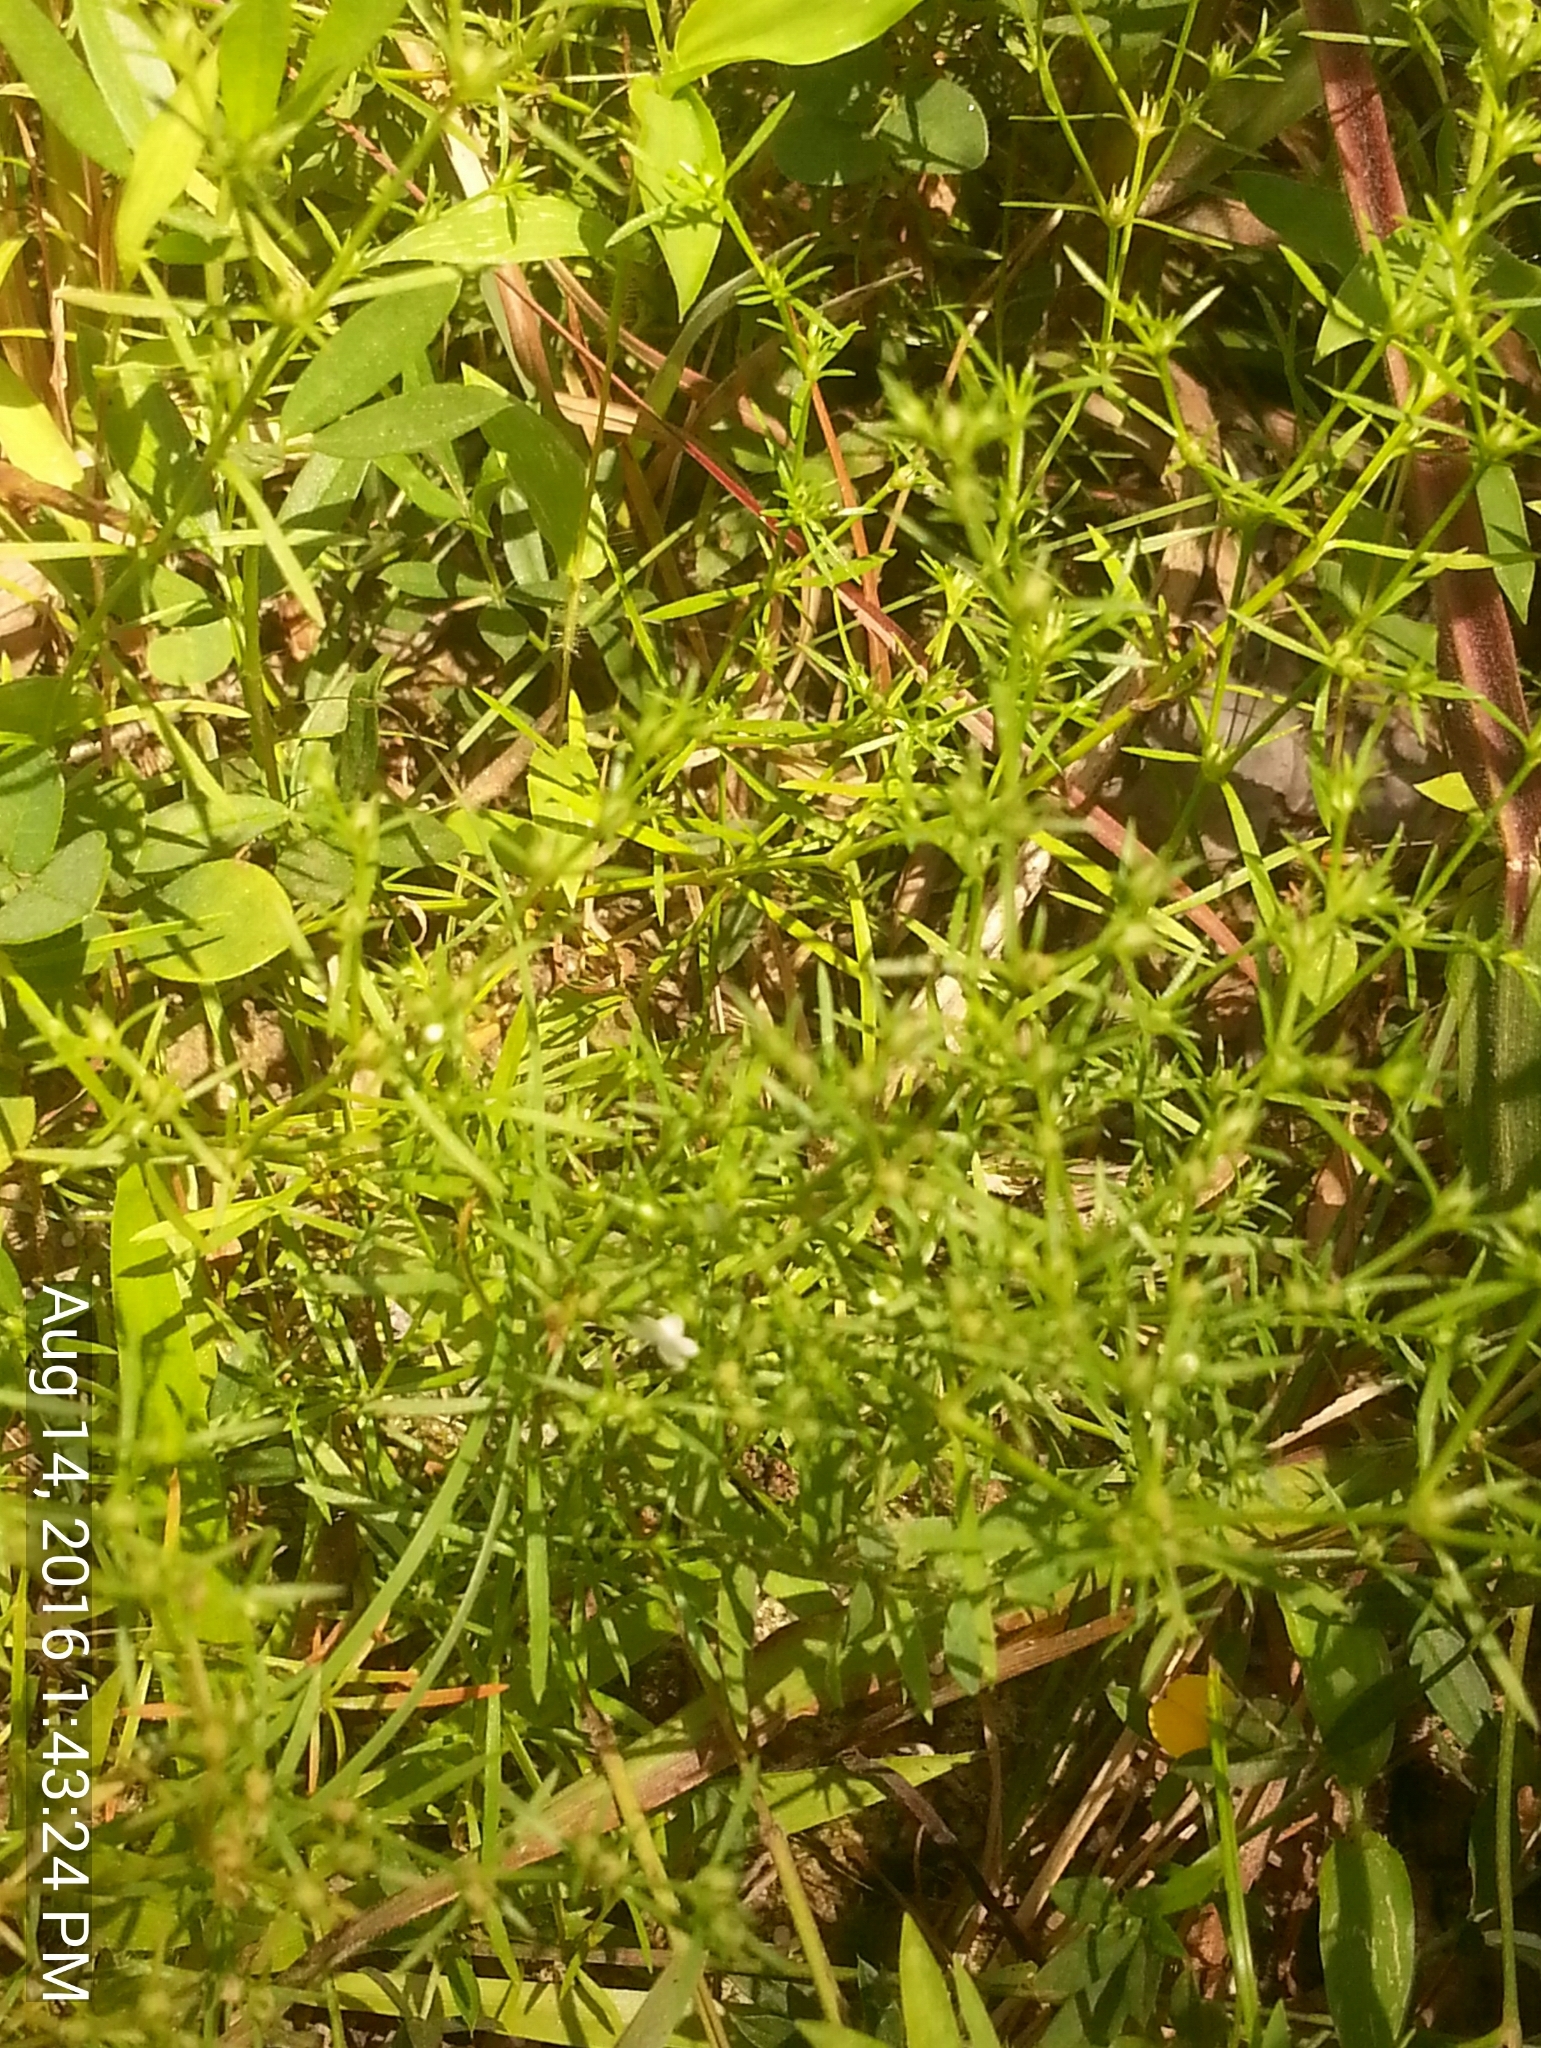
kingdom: Plantae
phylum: Tracheophyta
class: Magnoliopsida
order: Lamiales
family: Tetrachondraceae
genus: Polypremum
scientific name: Polypremum procumbens
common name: Juniper-leaf
